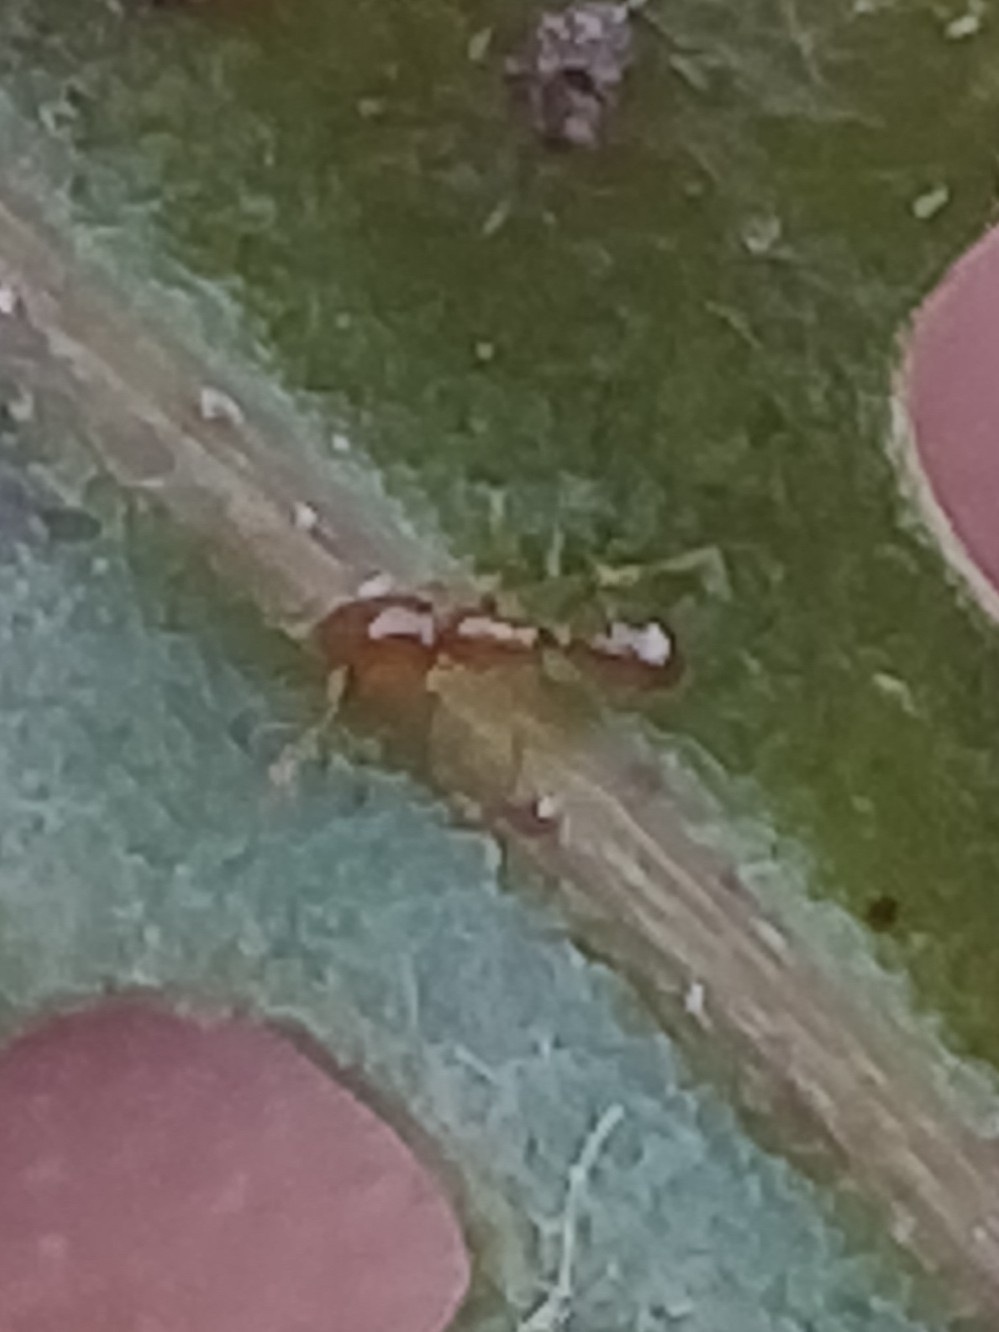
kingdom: Animalia
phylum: Arthropoda
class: Insecta
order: Hymenoptera
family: Formicidae
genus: Solenopsis
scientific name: Solenopsis molesta
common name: Thief ant
